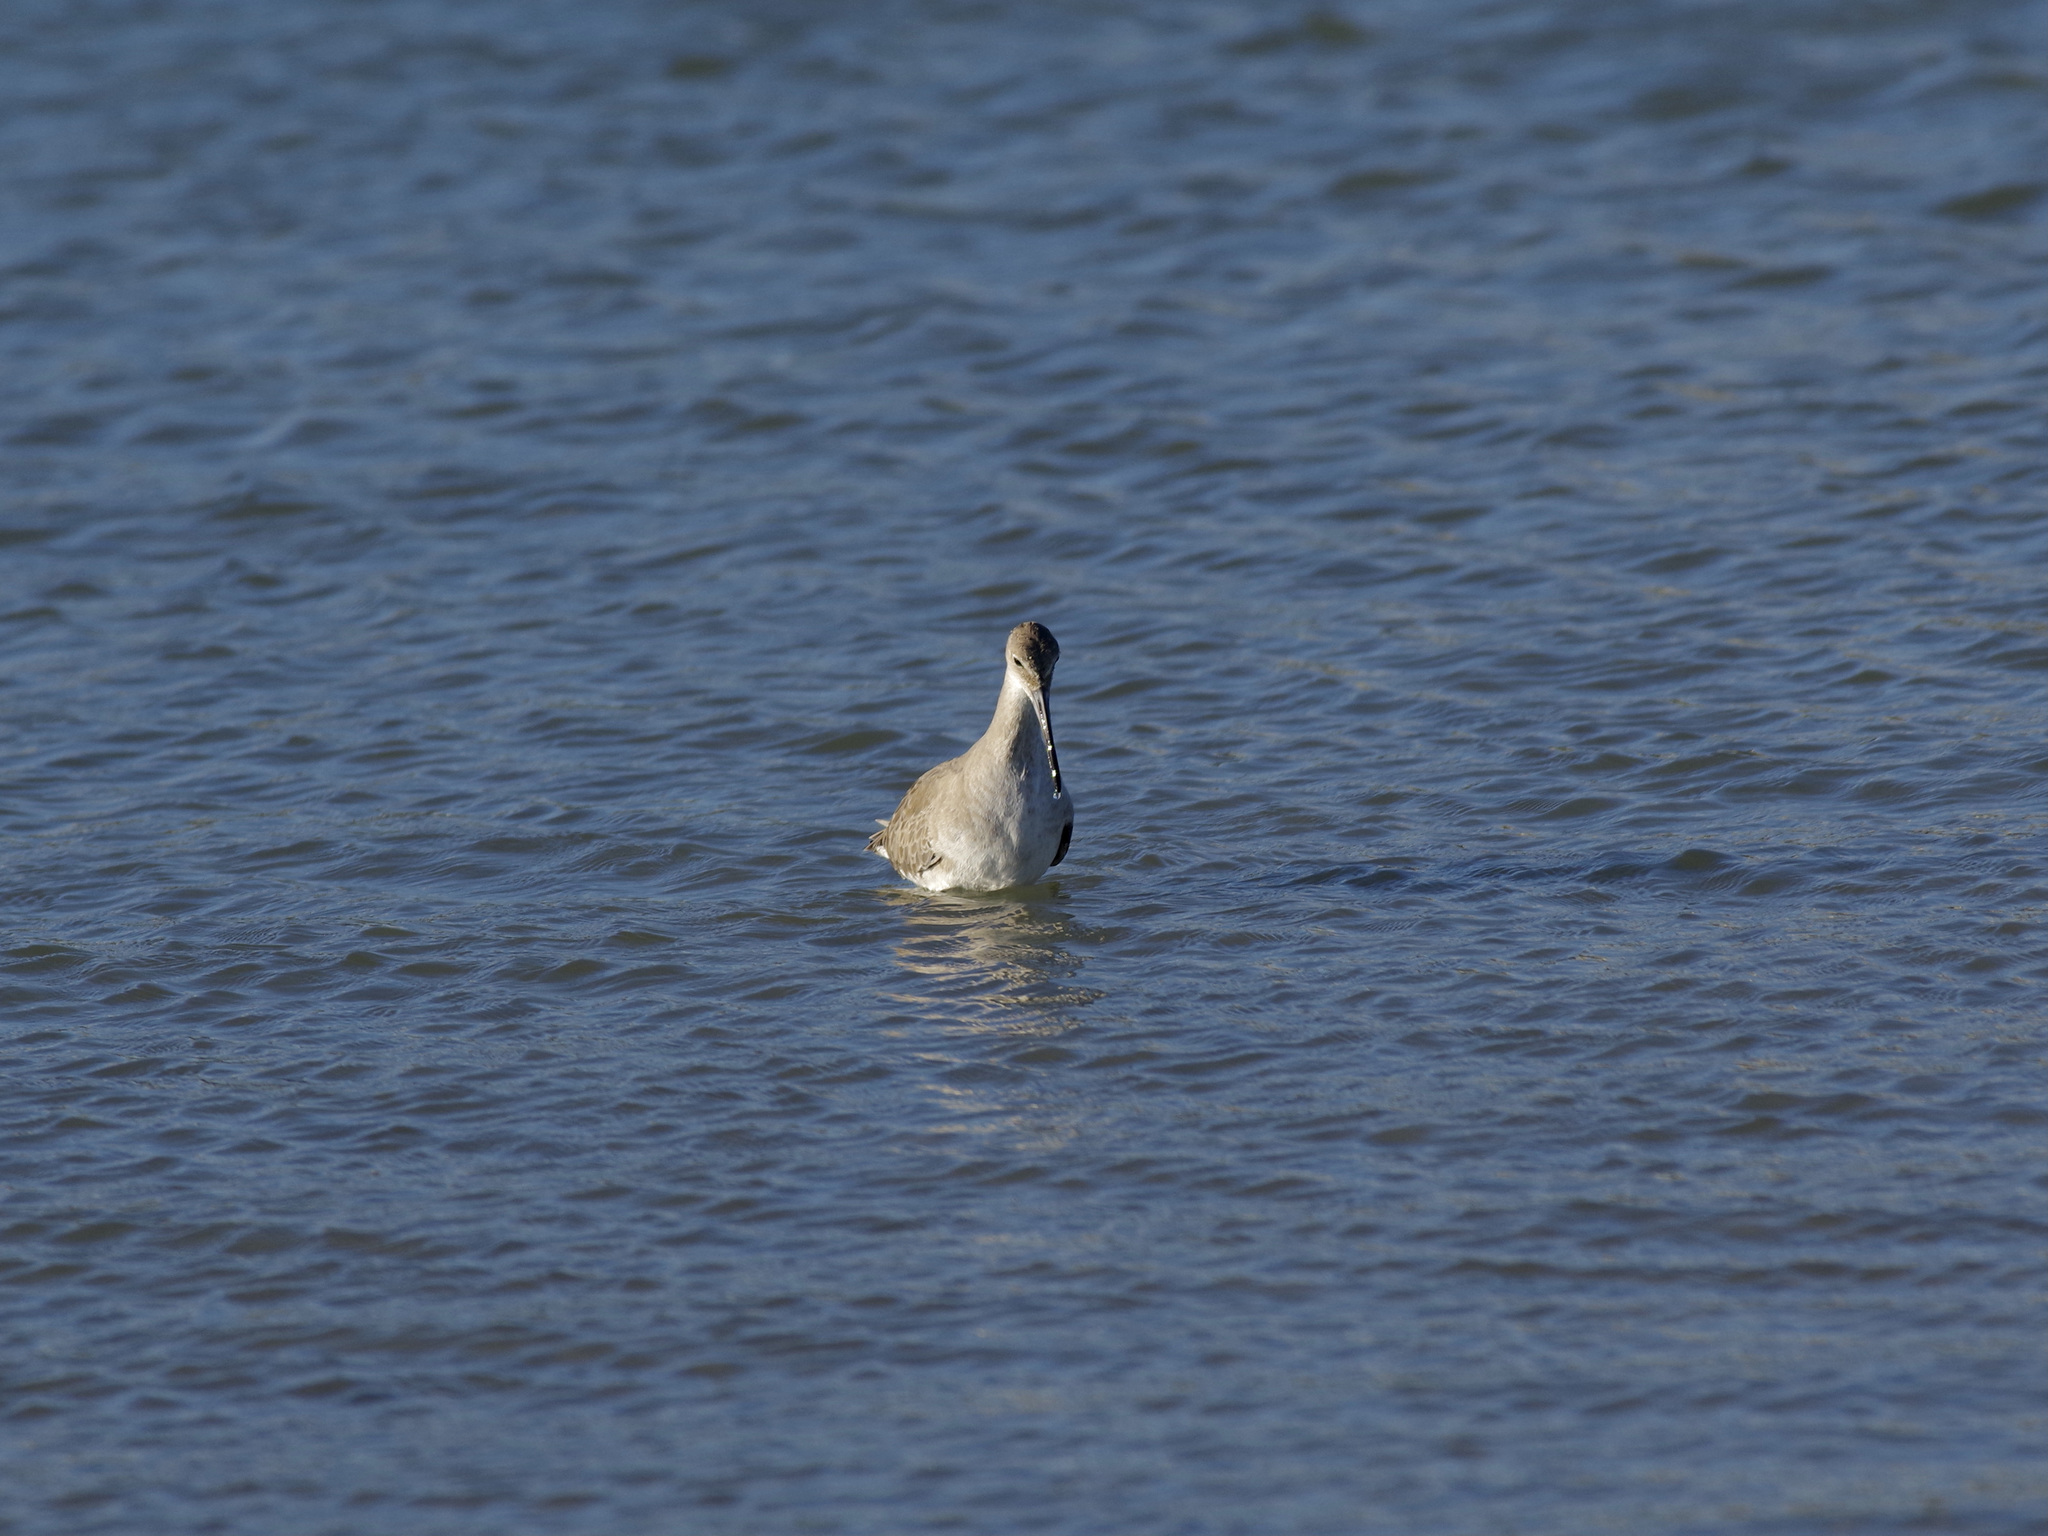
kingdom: Animalia
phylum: Chordata
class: Aves
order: Charadriiformes
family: Scolopacidae
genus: Tringa
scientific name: Tringa semipalmata
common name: Willet
